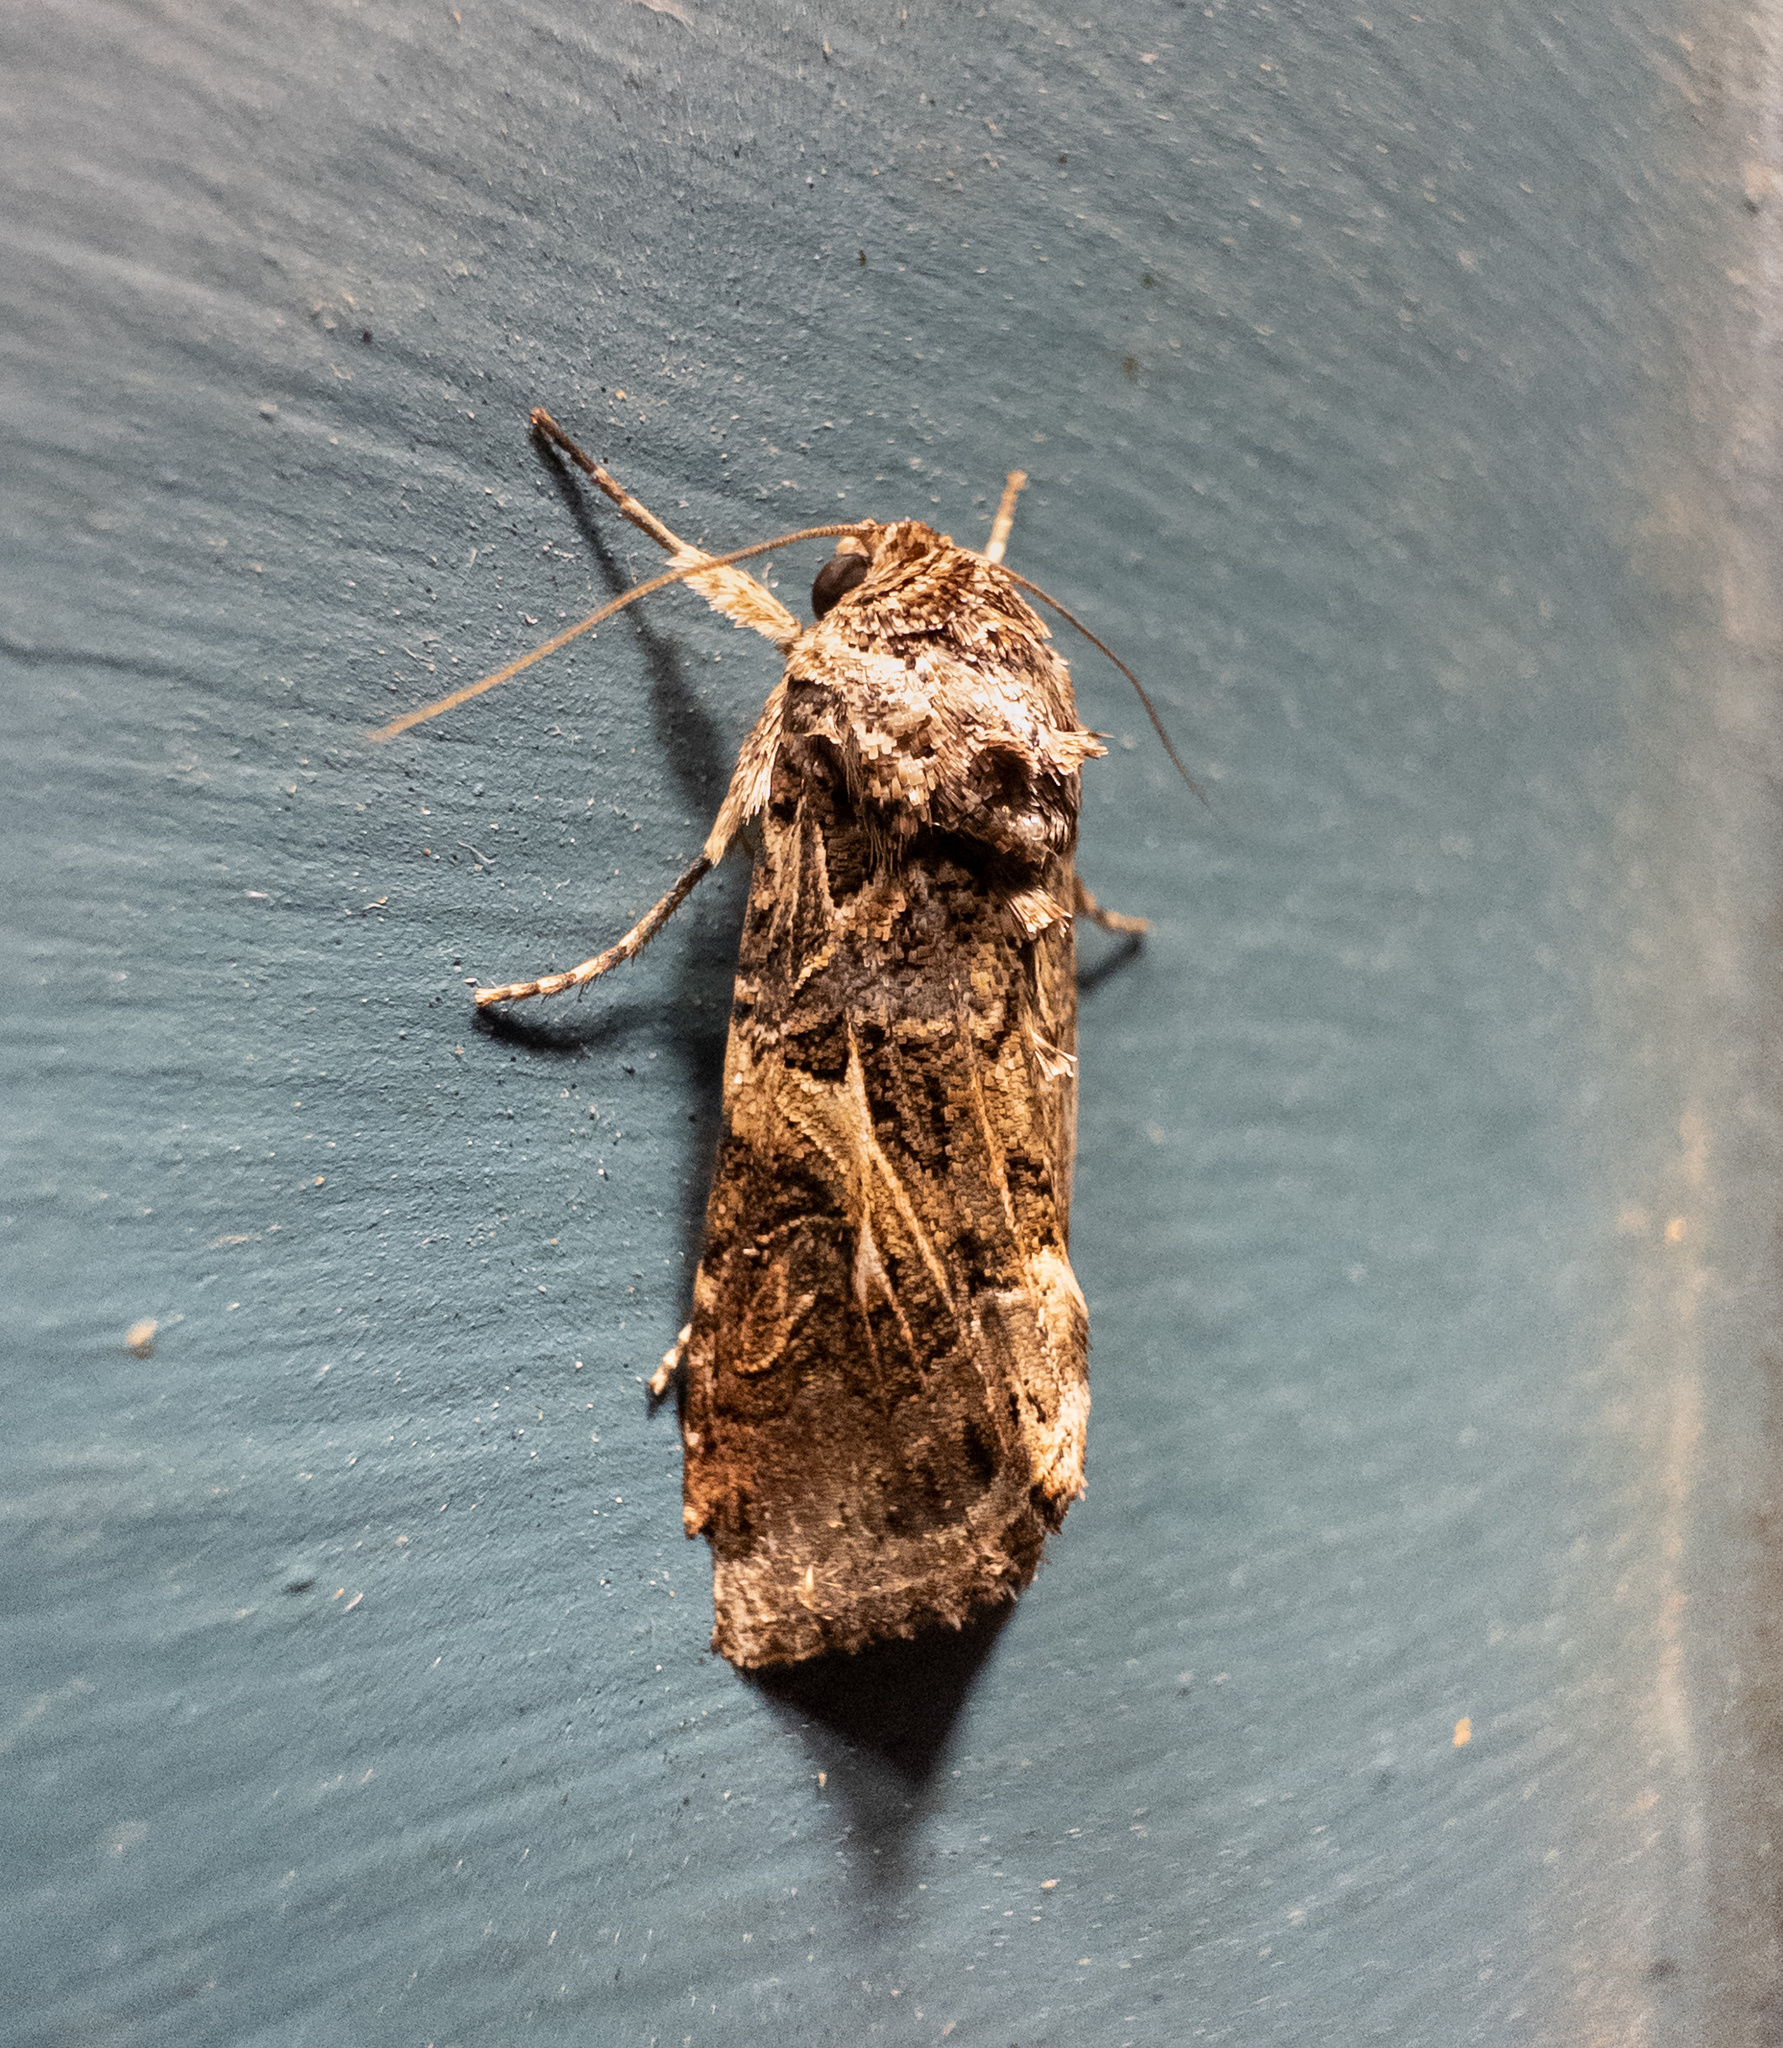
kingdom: Animalia
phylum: Arthropoda
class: Insecta
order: Lepidoptera
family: Noctuidae
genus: Spodoptera
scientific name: Spodoptera ornithogalli
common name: Yellow-striped armyworm
